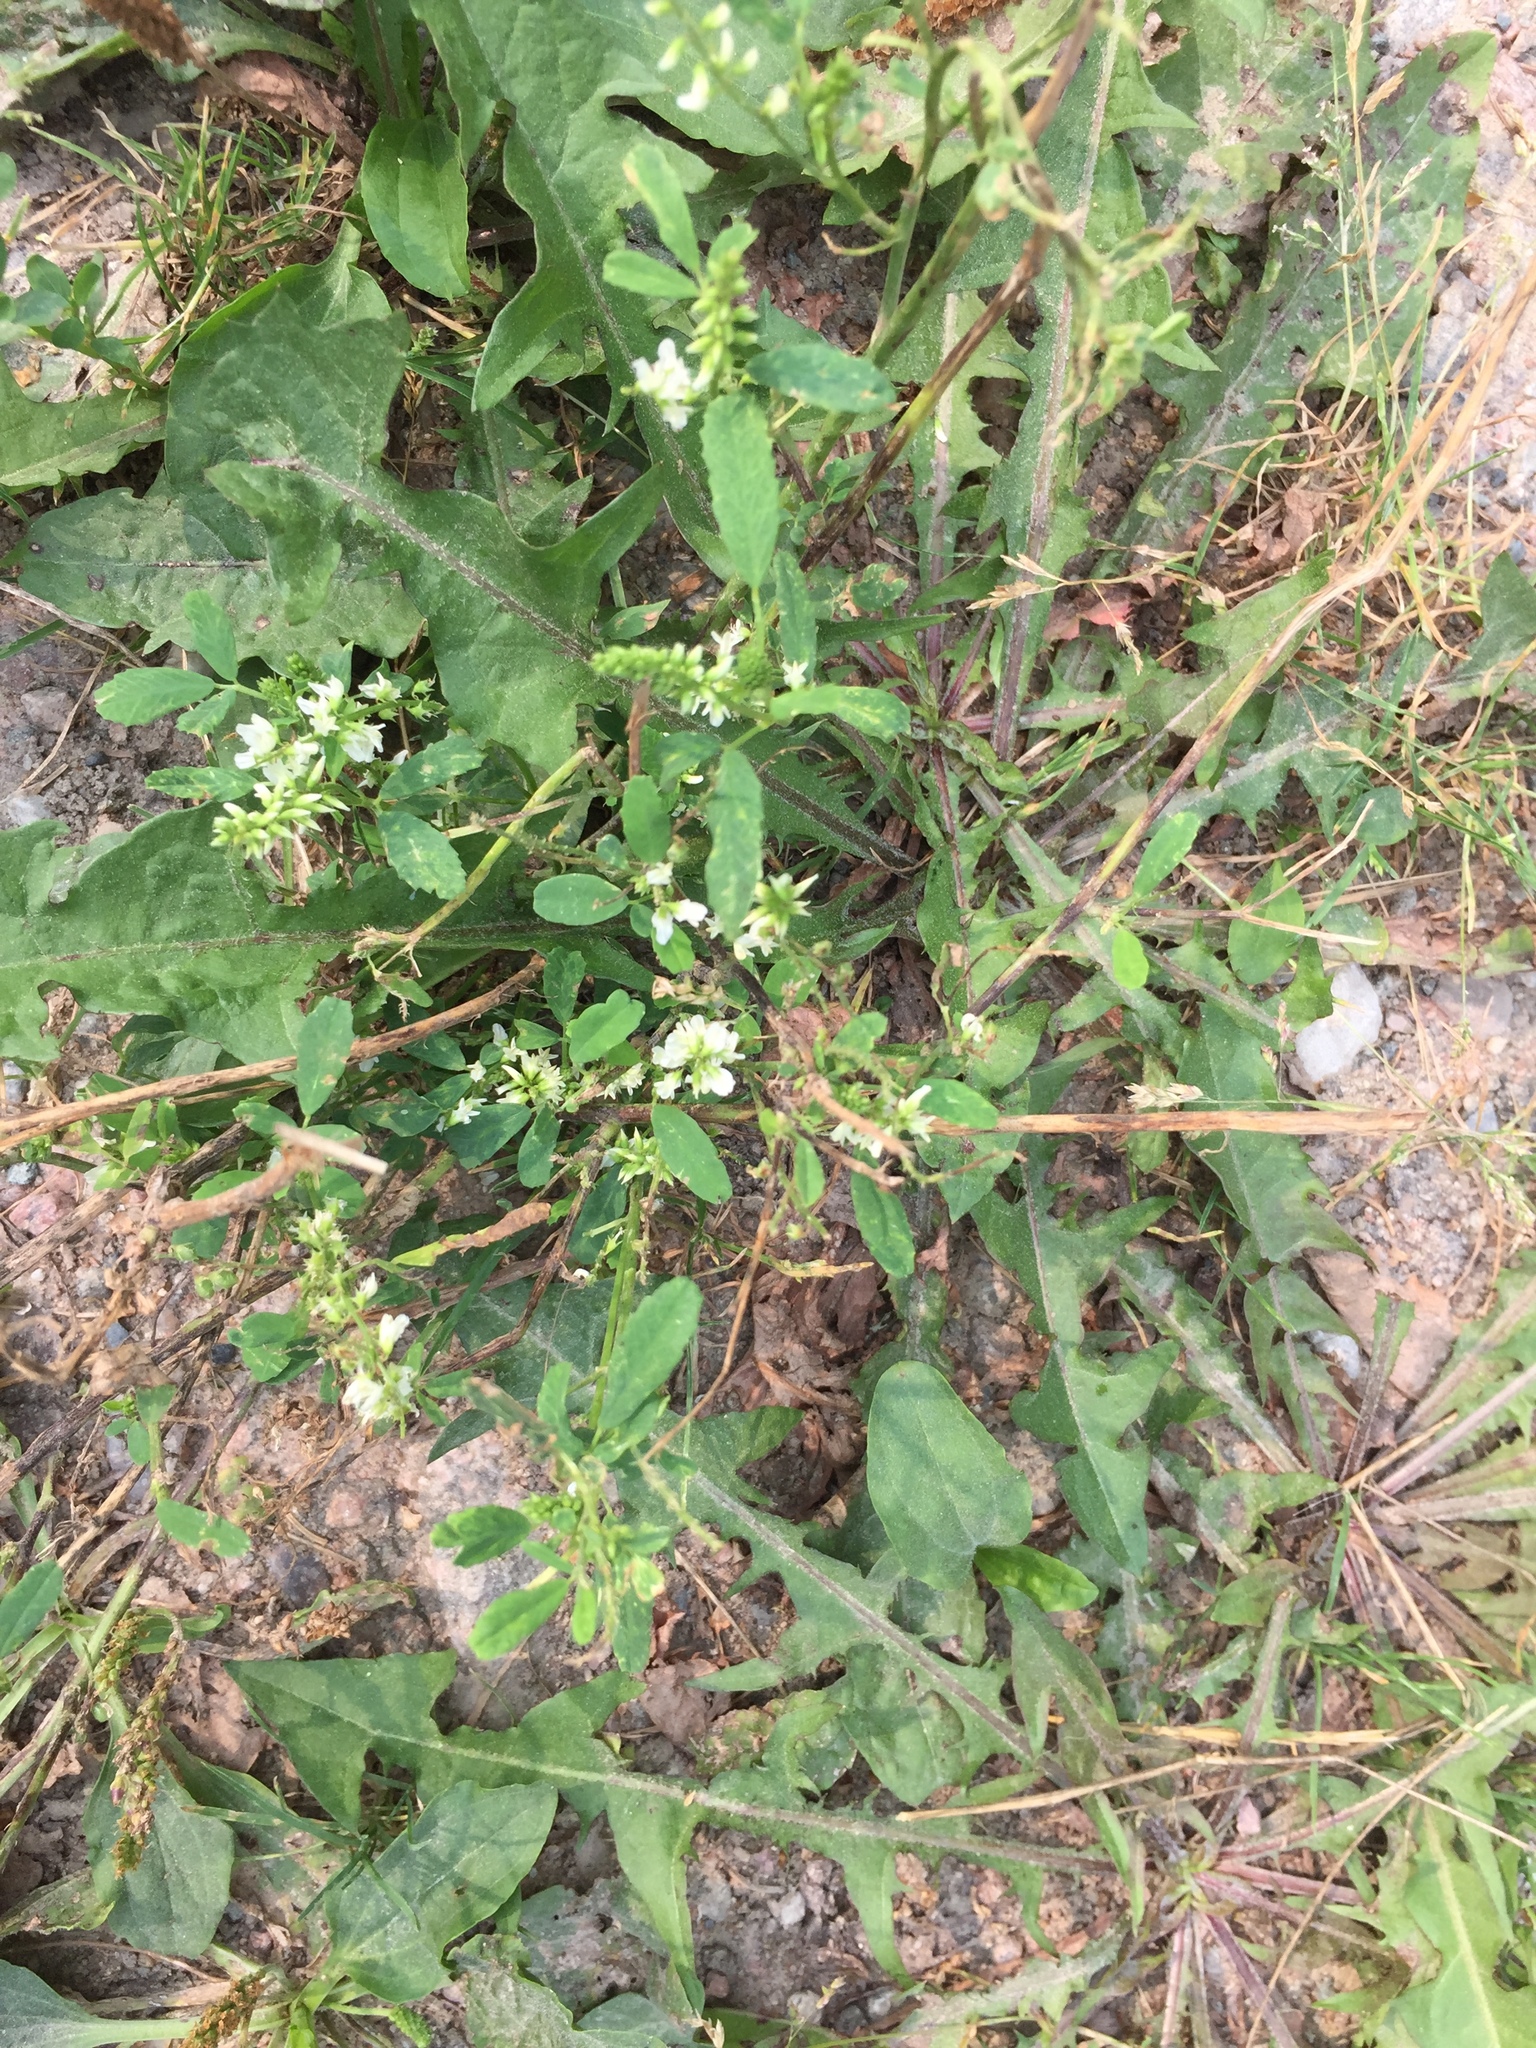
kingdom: Plantae
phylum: Tracheophyta
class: Magnoliopsida
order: Fabales
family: Fabaceae
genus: Melilotus
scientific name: Melilotus albus
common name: White melilot
